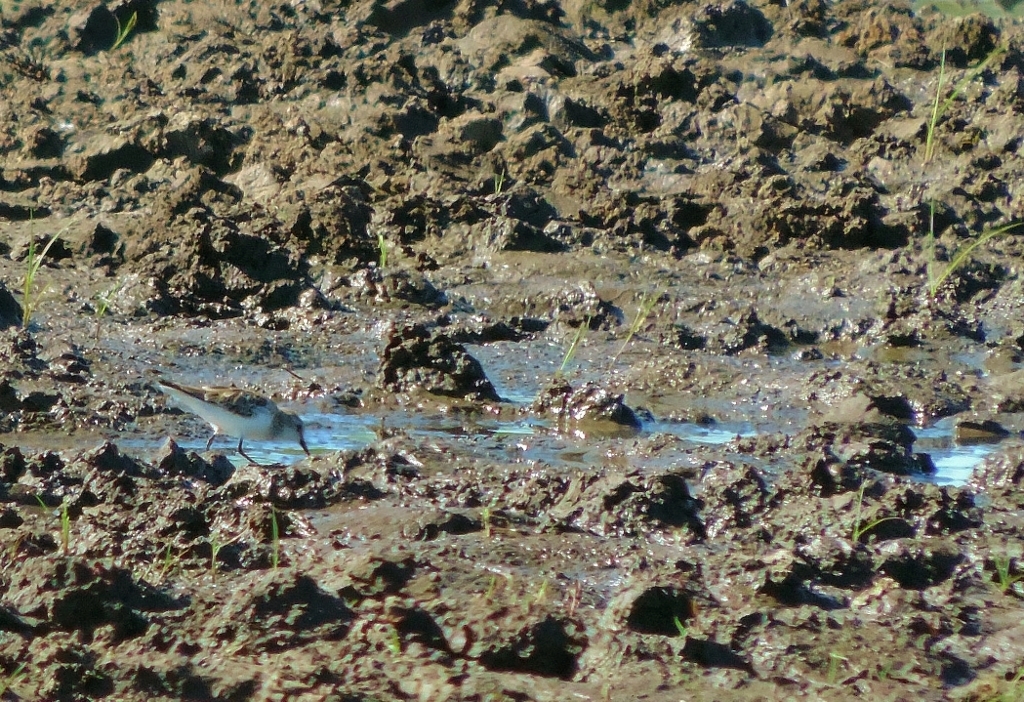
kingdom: Animalia
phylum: Chordata
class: Aves
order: Charadriiformes
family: Scolopacidae
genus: Calidris
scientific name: Calidris minuta
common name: Little stint
